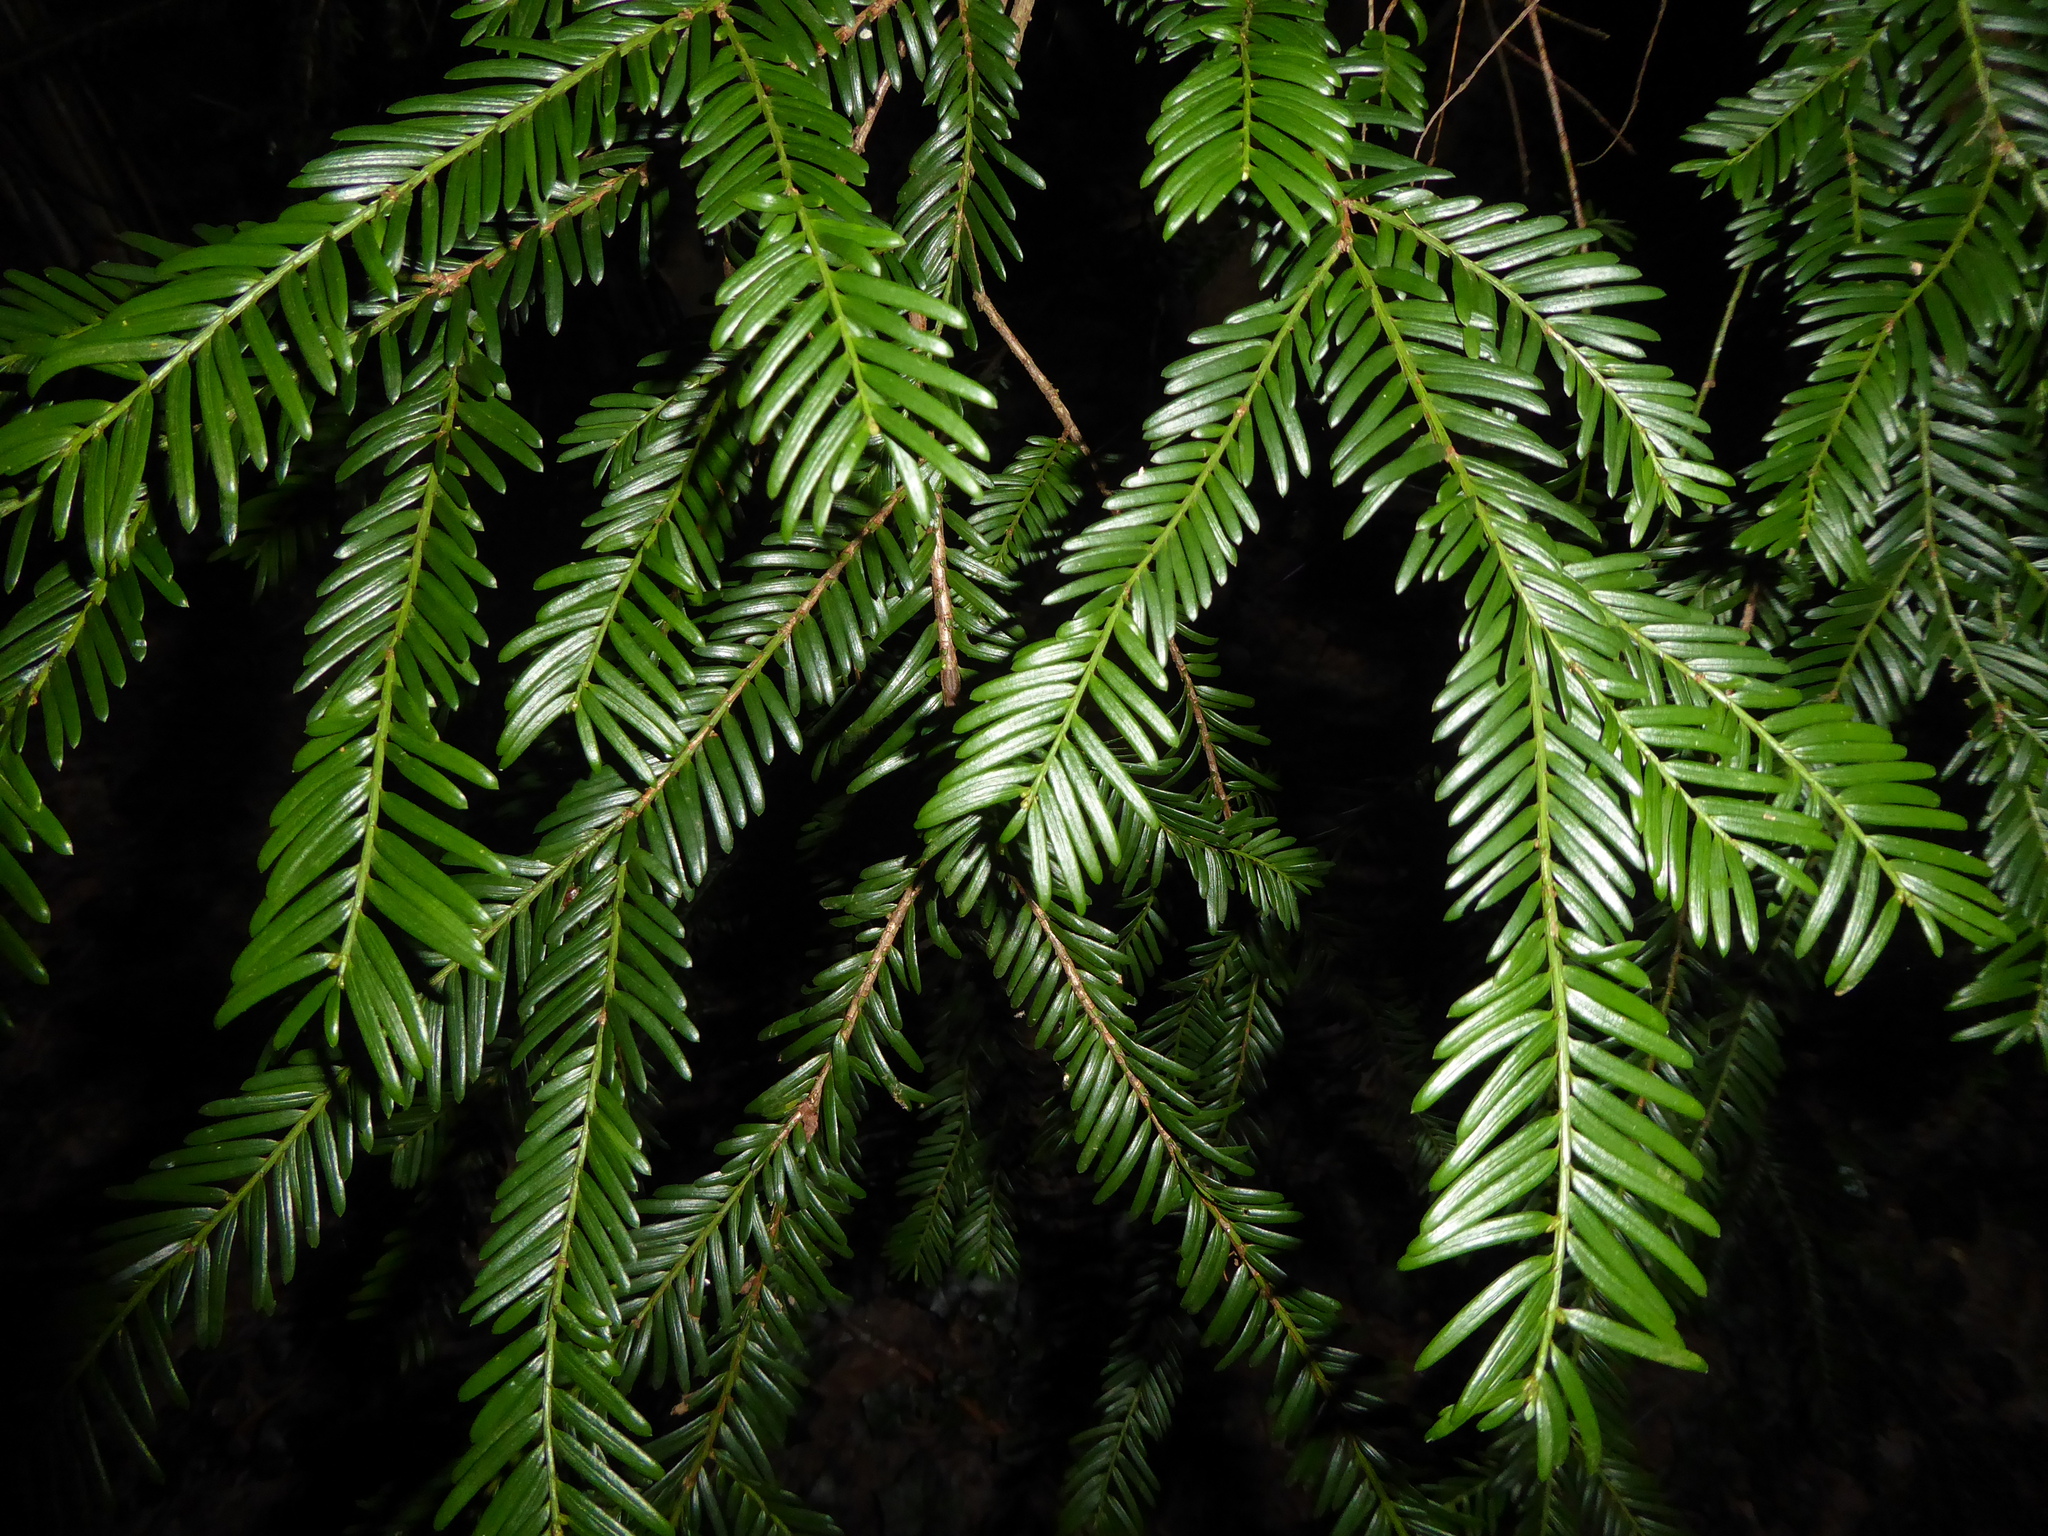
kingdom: Plantae
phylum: Tracheophyta
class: Pinopsida
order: Pinales
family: Taxaceae
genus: Taxus
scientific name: Taxus baccata
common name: Yew
